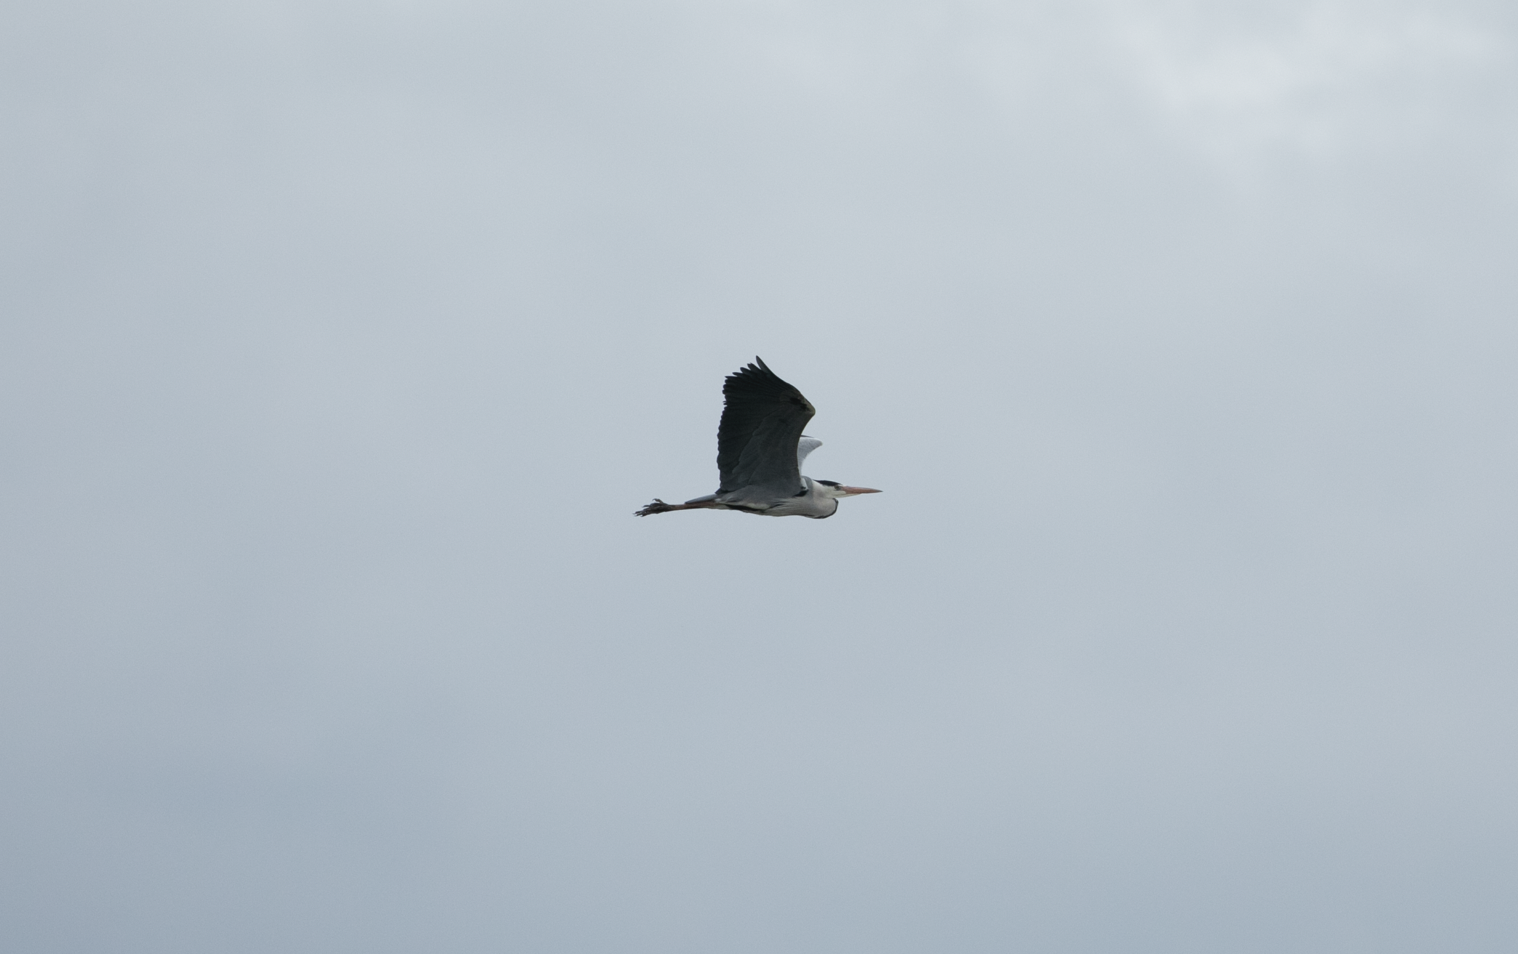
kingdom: Animalia
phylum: Chordata
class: Aves
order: Pelecaniformes
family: Ardeidae
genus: Ardea
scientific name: Ardea cinerea
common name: Grey heron
